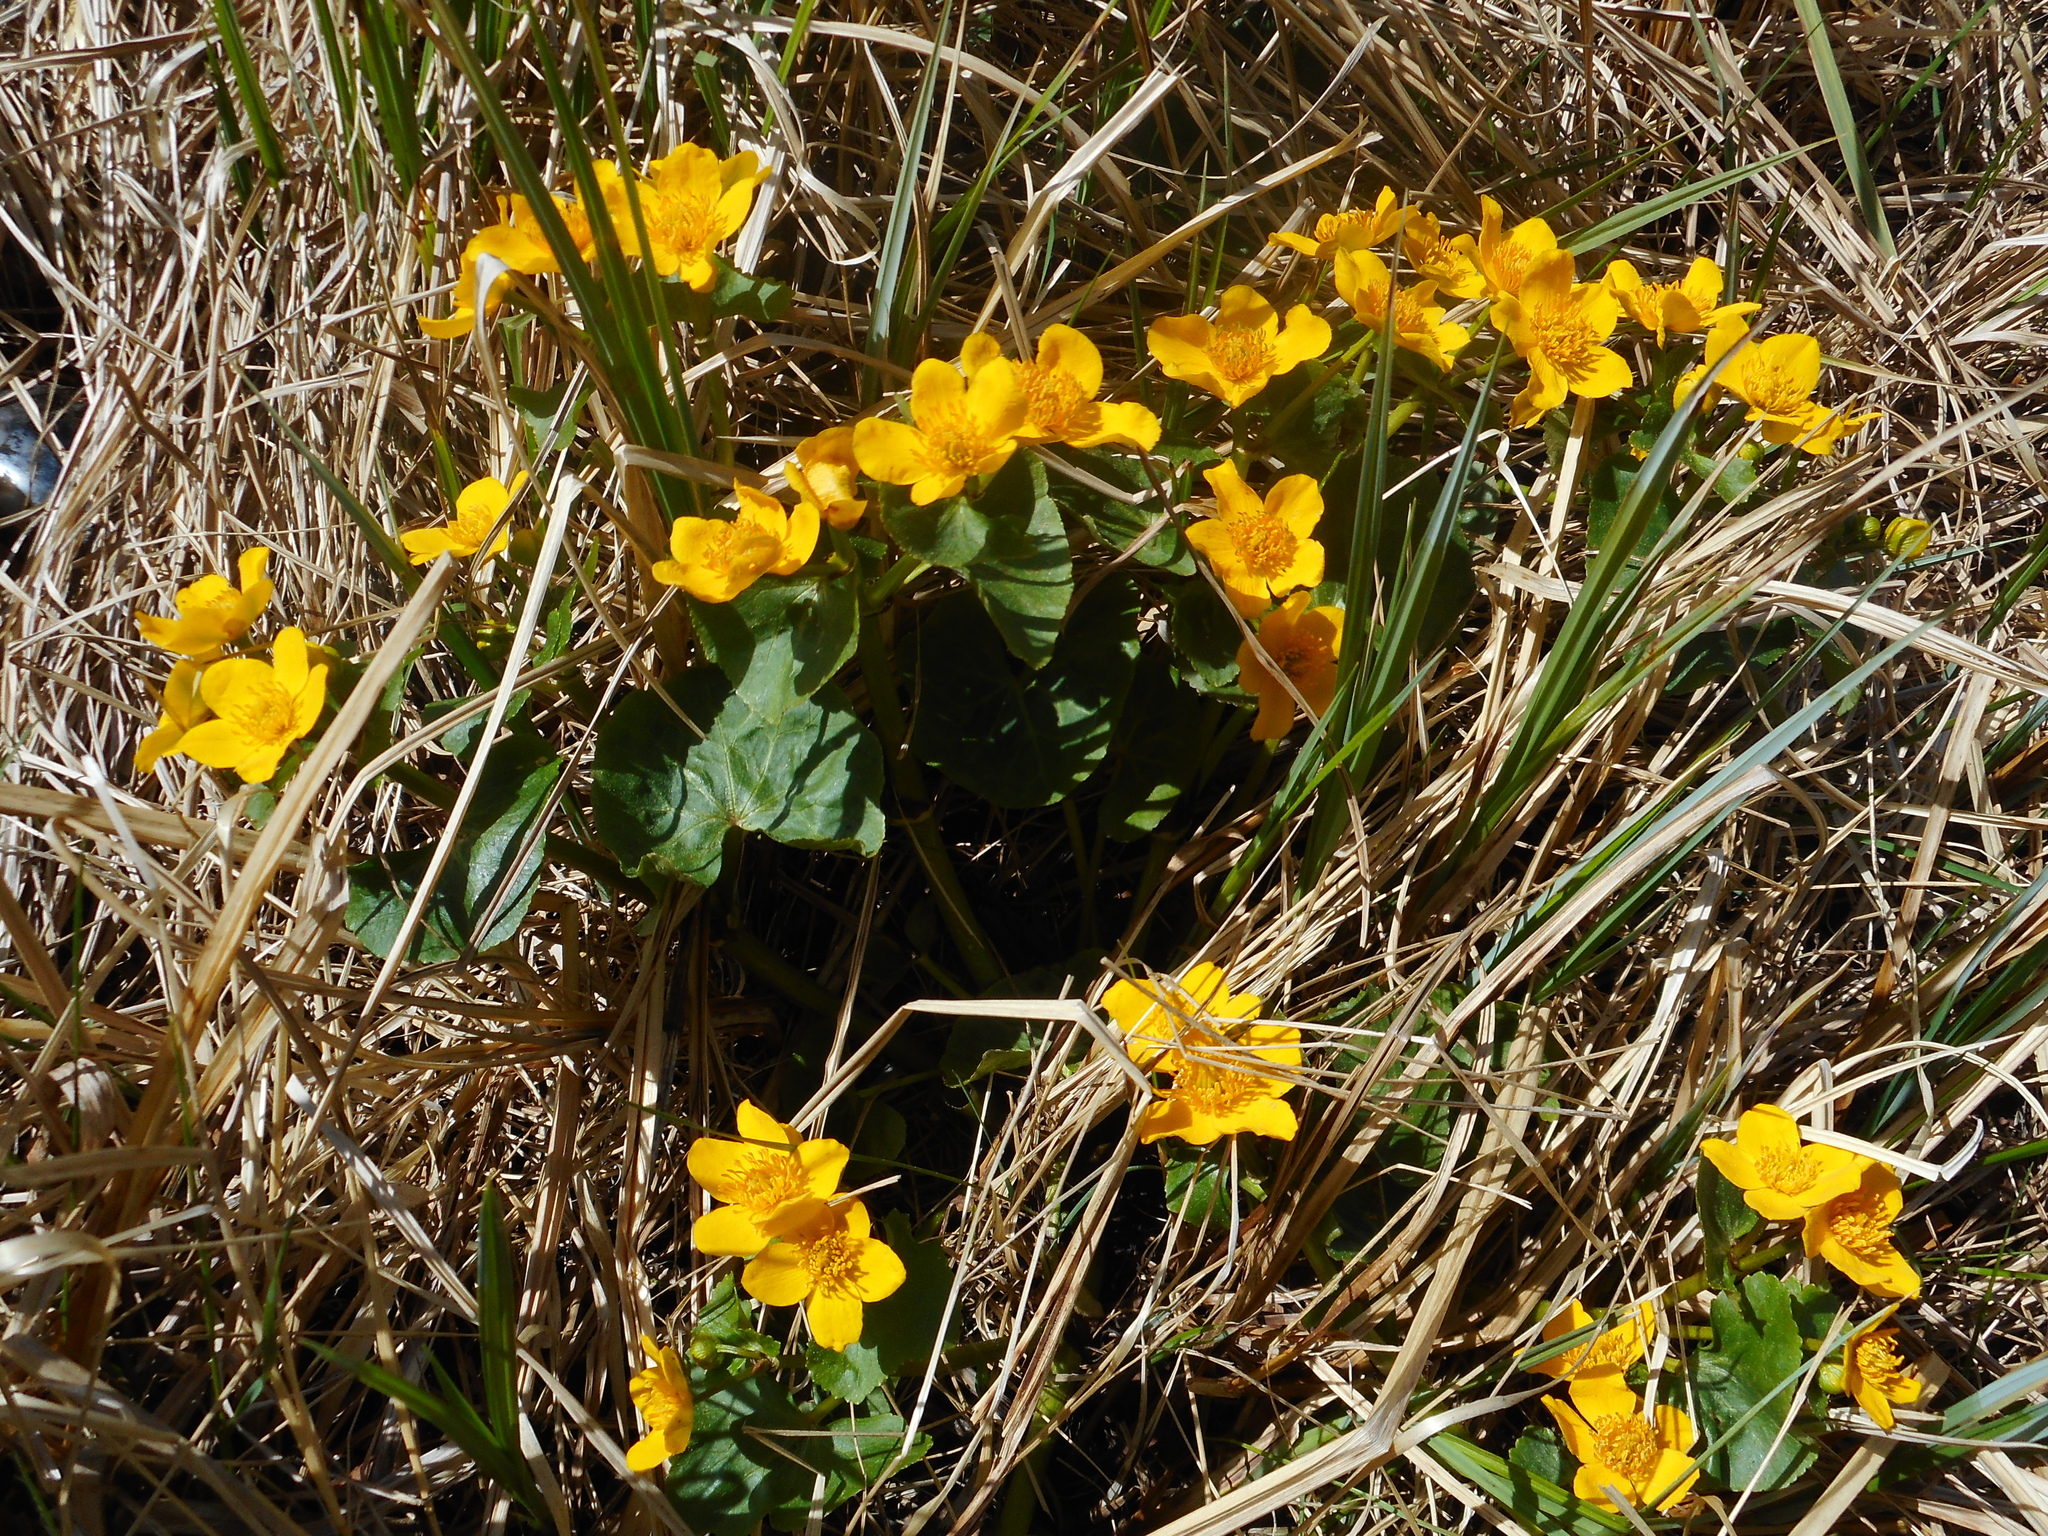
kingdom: Plantae
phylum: Tracheophyta
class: Magnoliopsida
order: Ranunculales
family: Ranunculaceae
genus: Caltha
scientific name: Caltha palustris
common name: Marsh marigold
